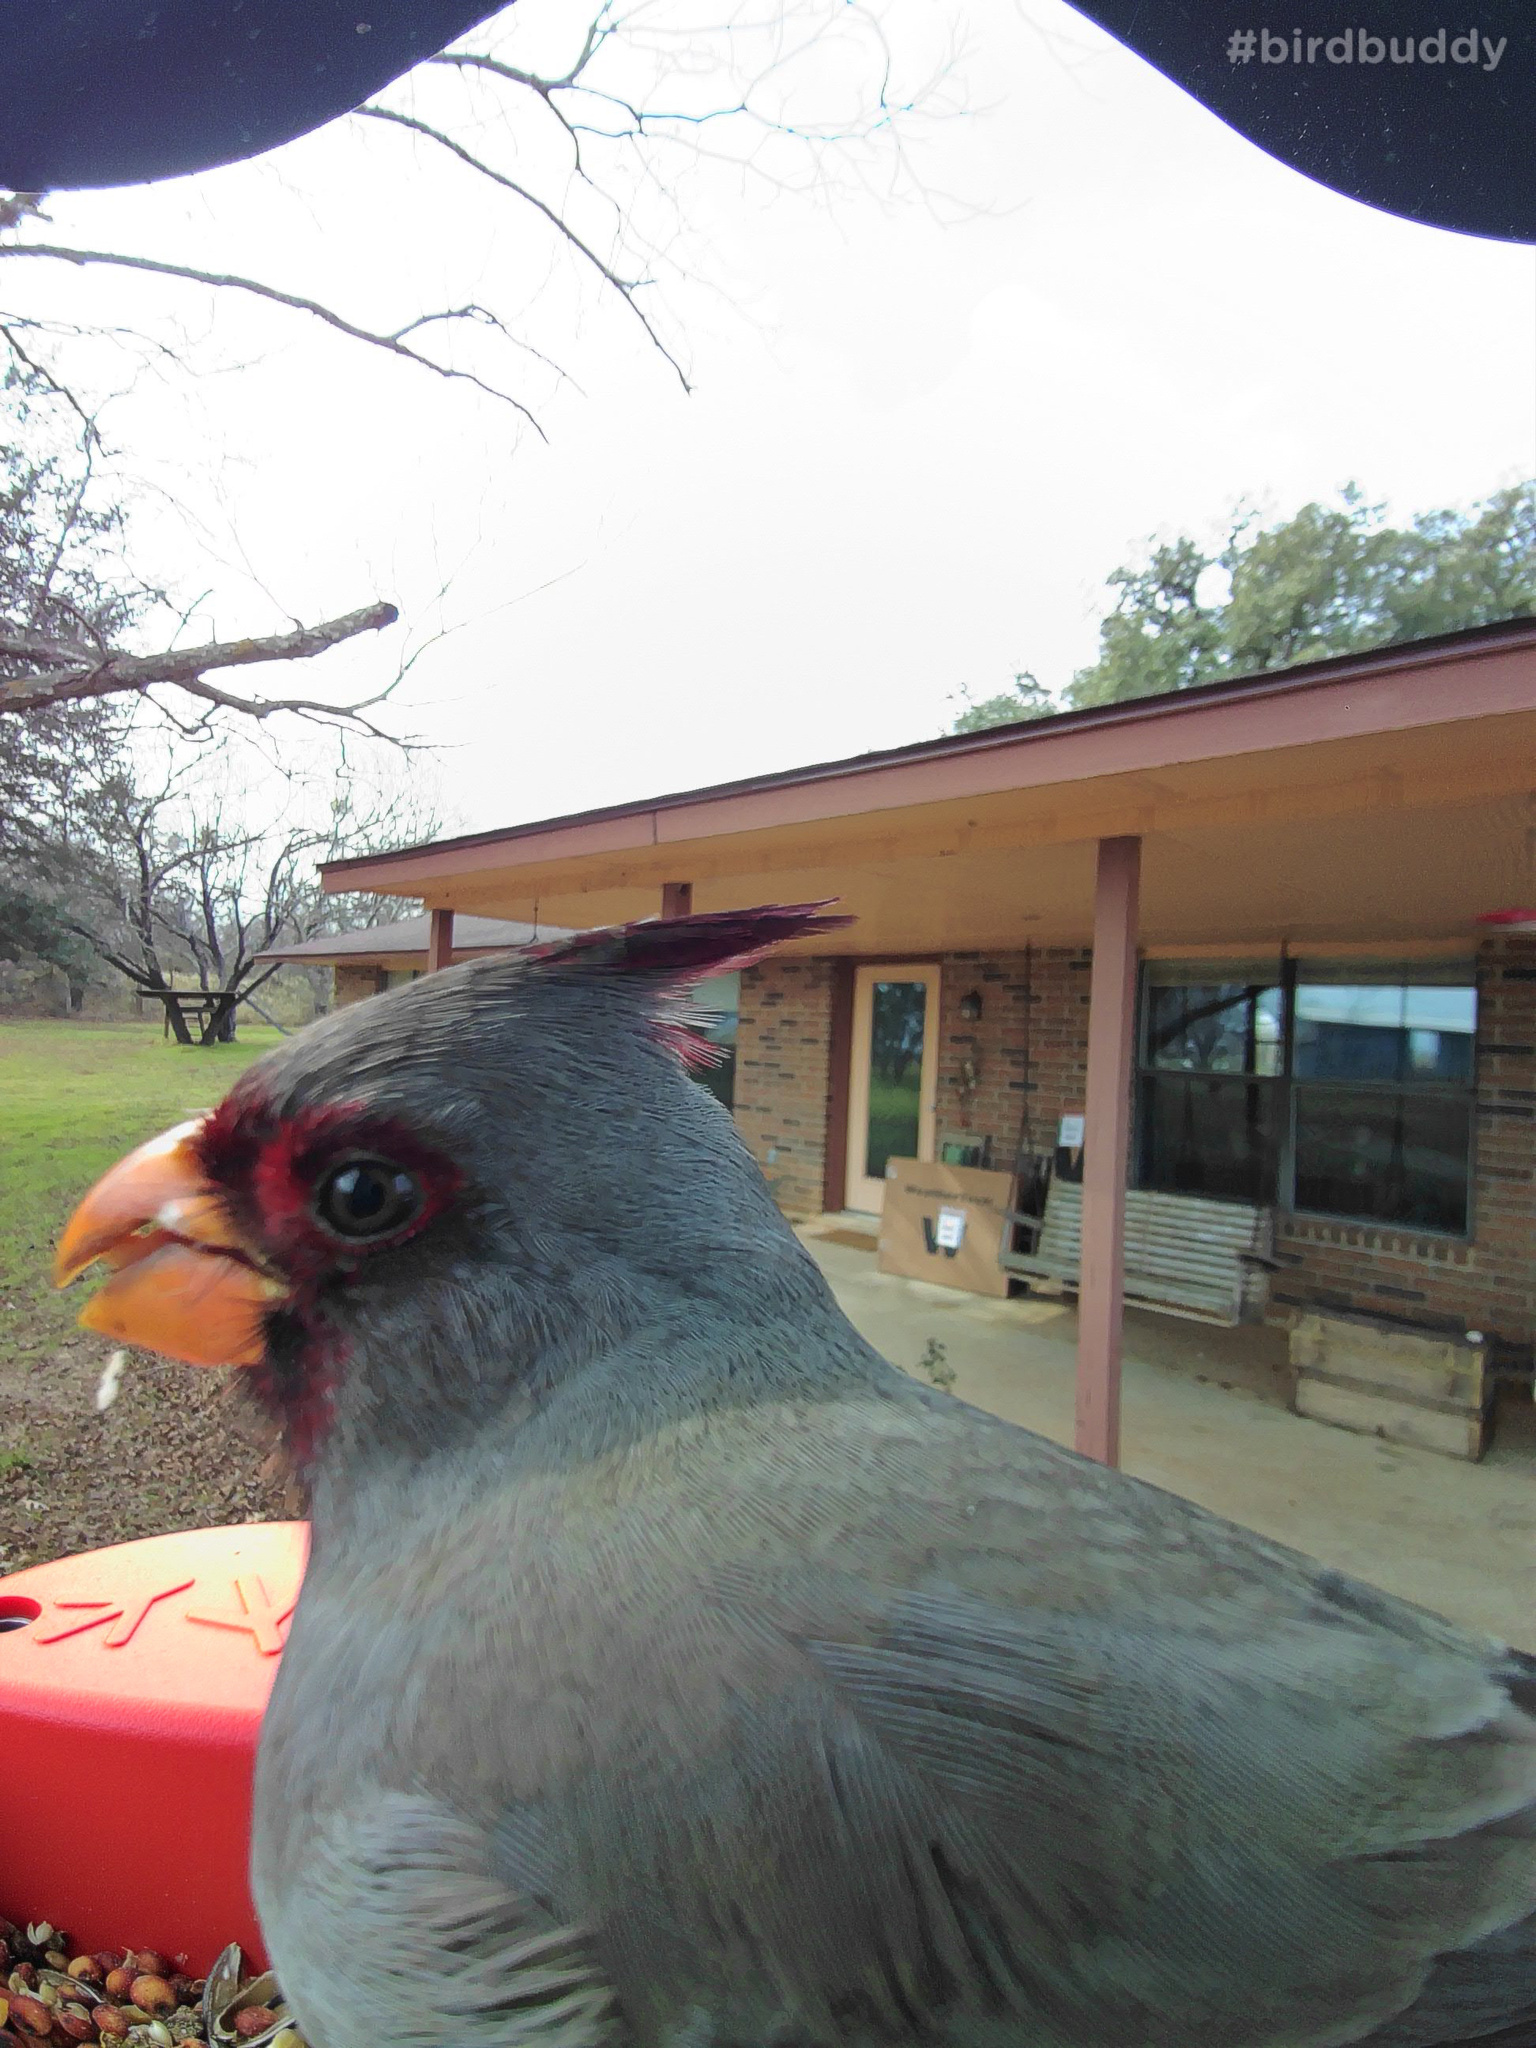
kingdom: Animalia
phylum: Chordata
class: Aves
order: Passeriformes
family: Cardinalidae
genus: Cardinalis
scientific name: Cardinalis sinuatus
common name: Pyrrhuloxia
